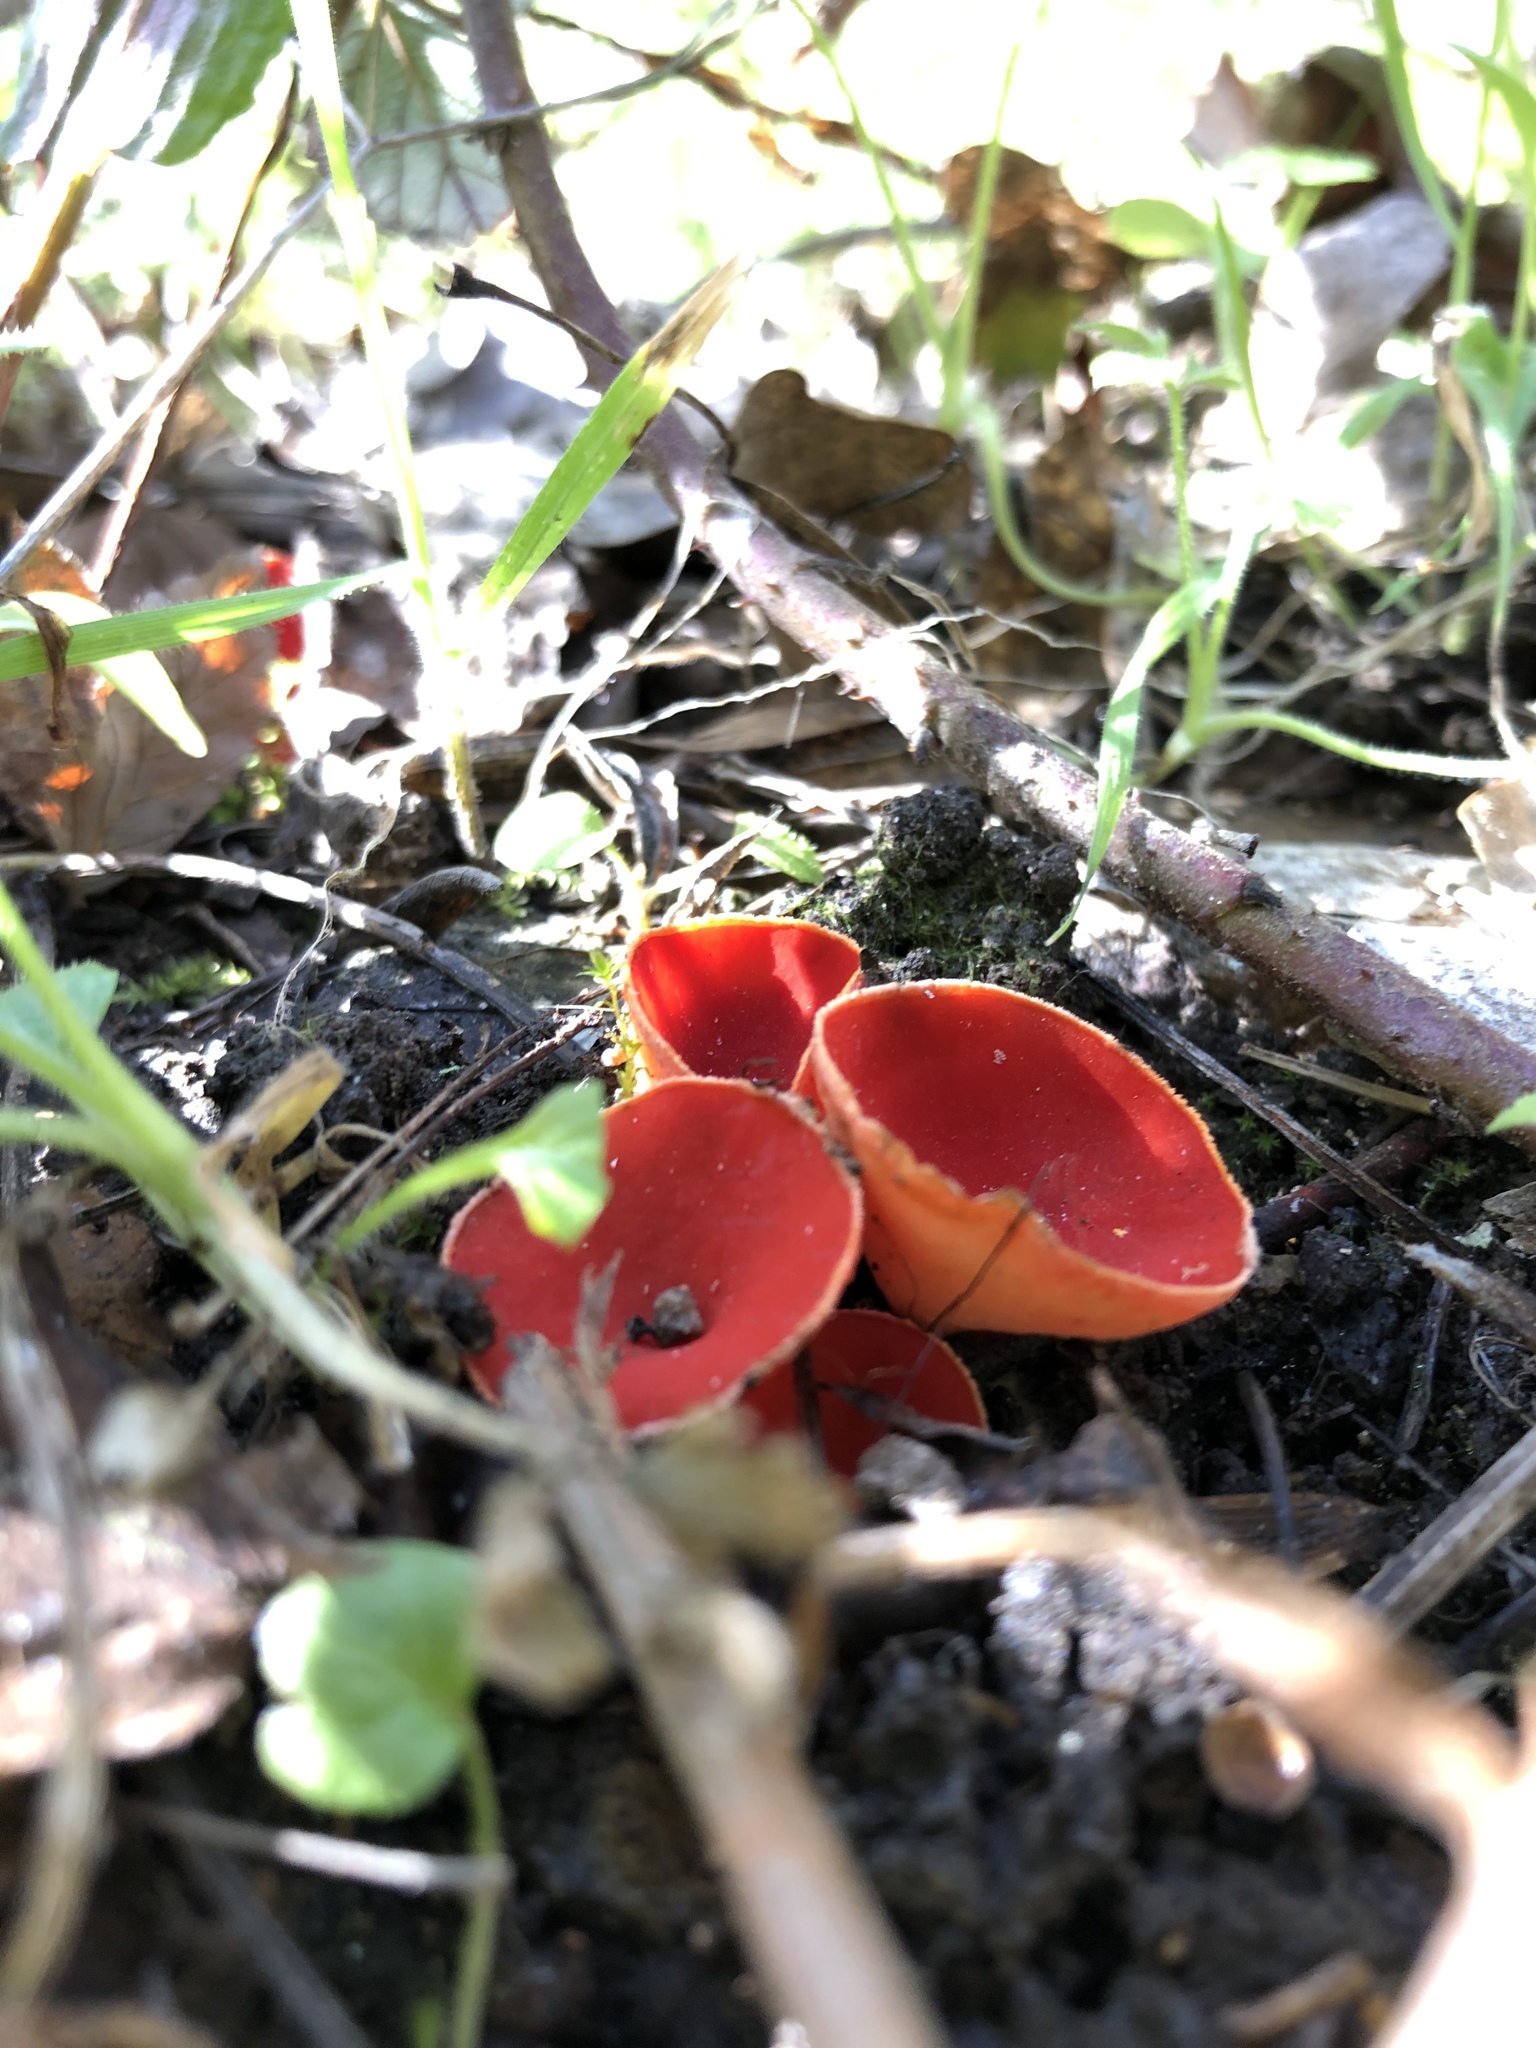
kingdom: Fungi
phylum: Ascomycota
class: Pezizomycetes
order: Pezizales
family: Sarcoscyphaceae
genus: Sarcoscypha
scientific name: Sarcoscypha
